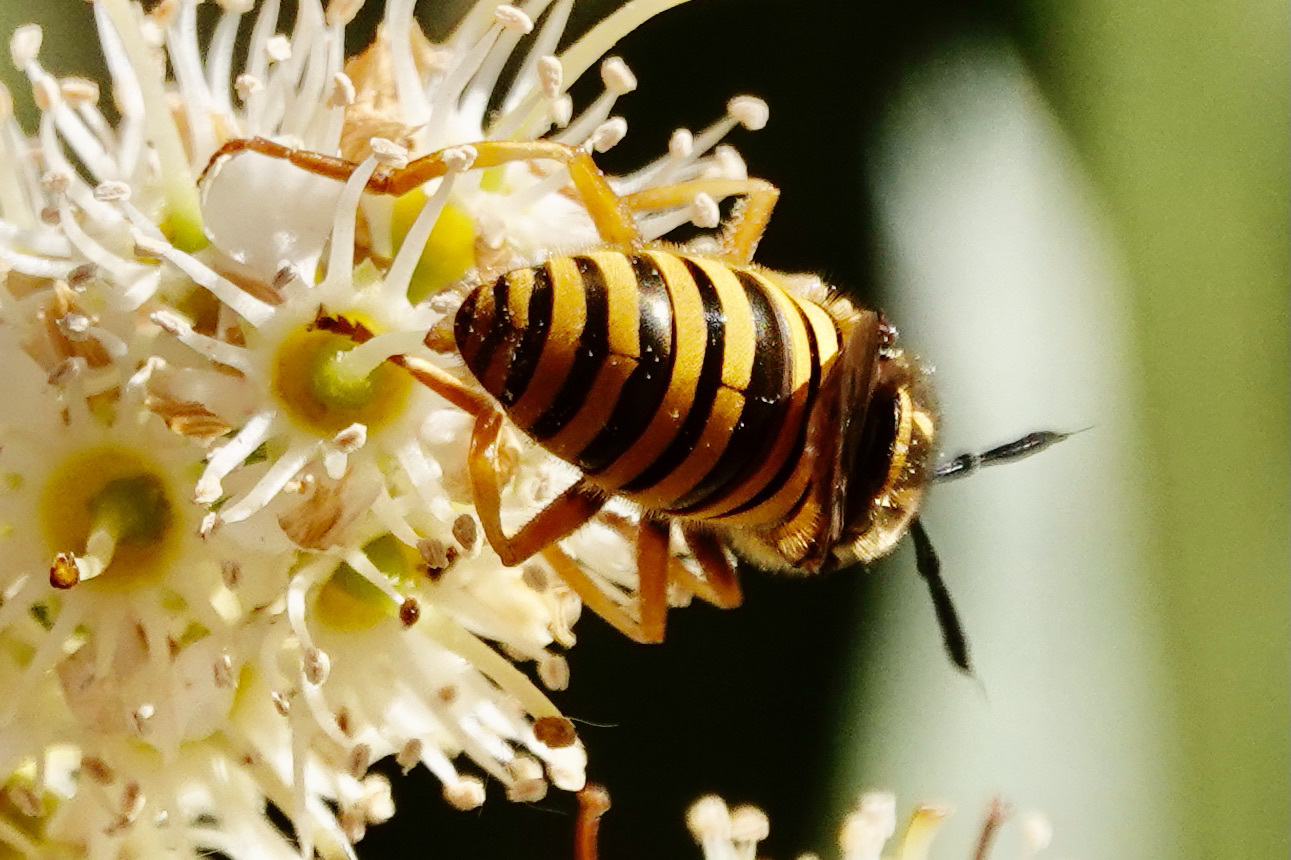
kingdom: Animalia
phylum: Arthropoda
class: Insecta
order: Diptera
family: Syrphidae
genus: Sphecomyia
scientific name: Sphecomyia vittata
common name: Long-horned yellowjacket fly
